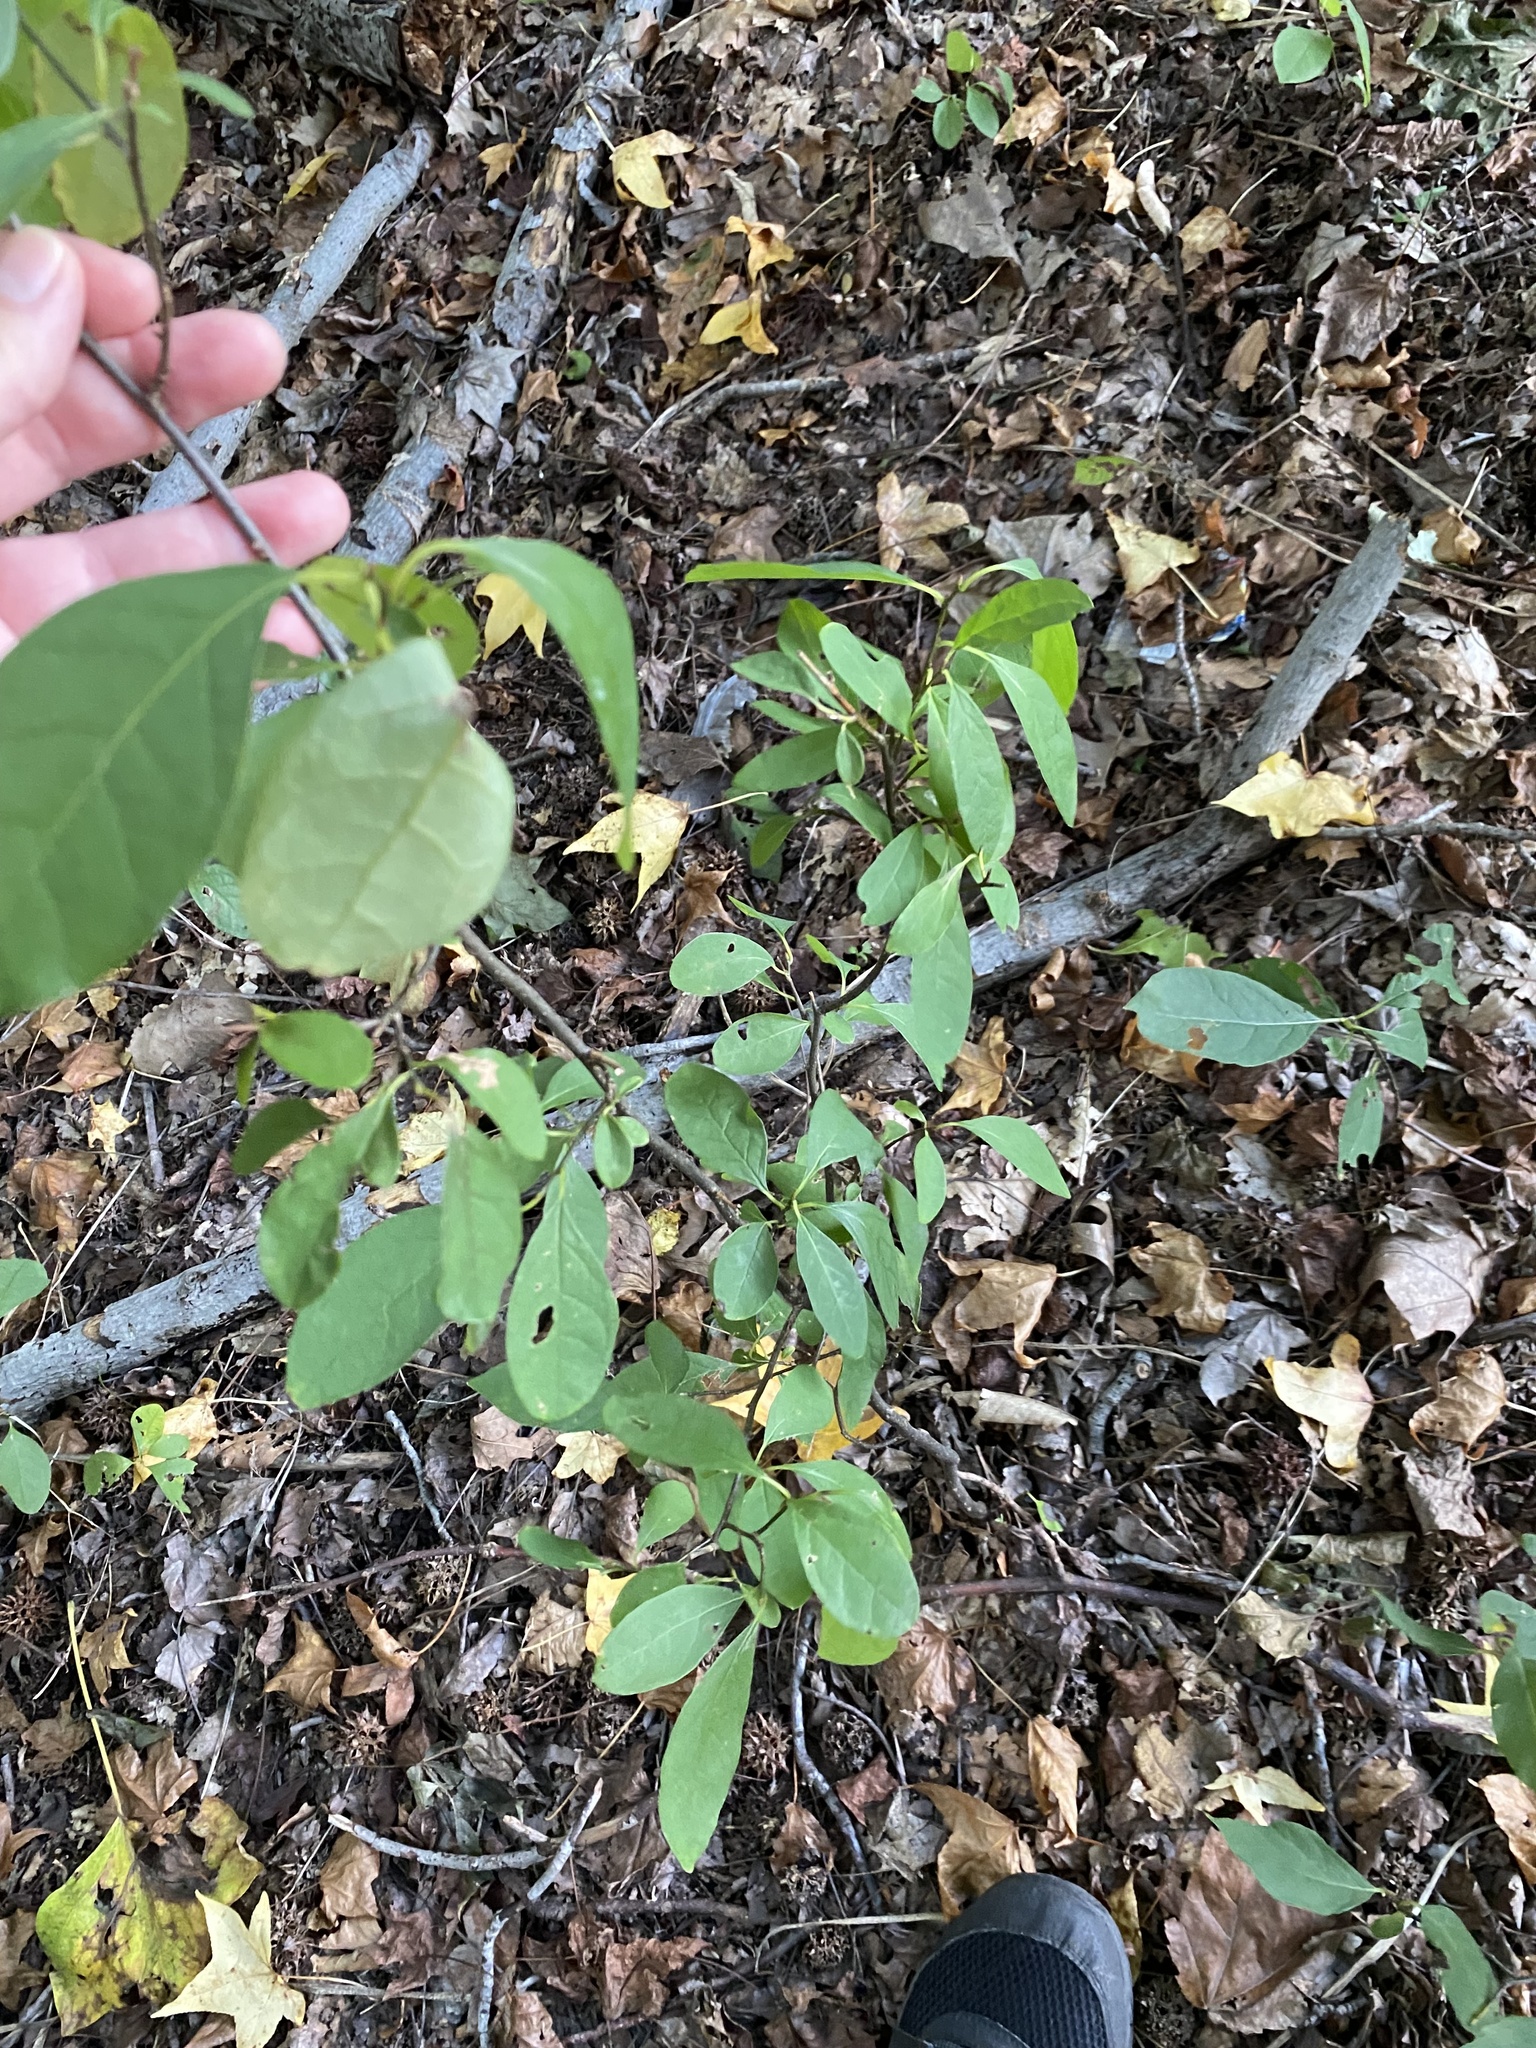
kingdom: Plantae
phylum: Tracheophyta
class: Magnoliopsida
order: Laurales
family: Lauraceae
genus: Lindera
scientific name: Lindera benzoin
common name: Spicebush
